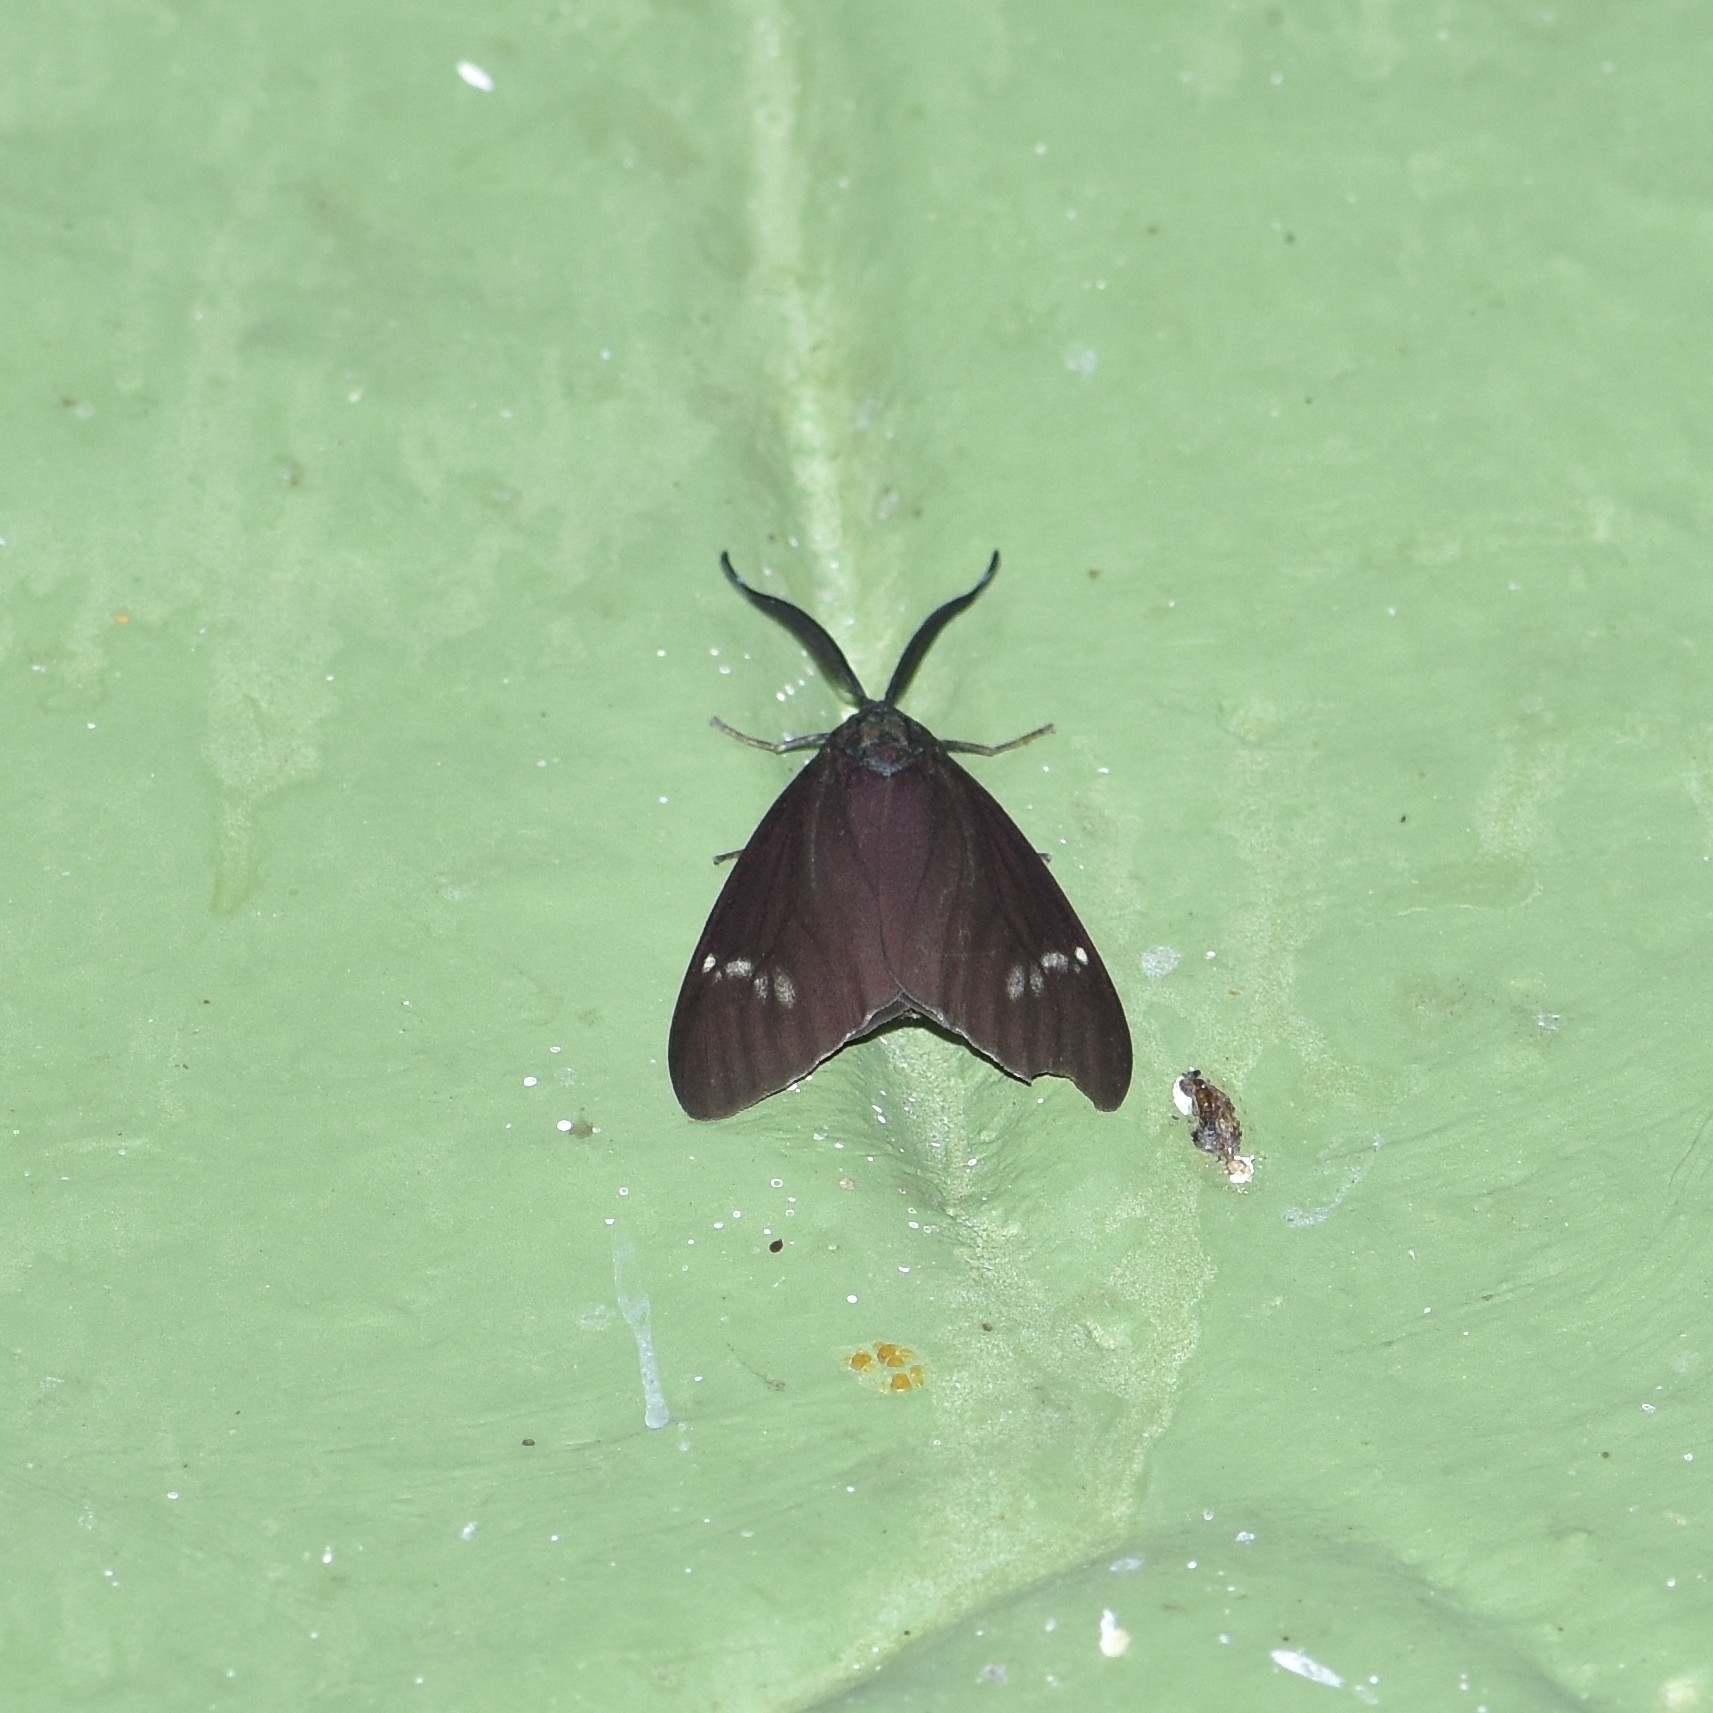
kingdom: Animalia
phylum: Arthropoda
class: Insecta
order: Lepidoptera
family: Zygaenidae
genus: Cyclosia
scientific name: Cyclosia
